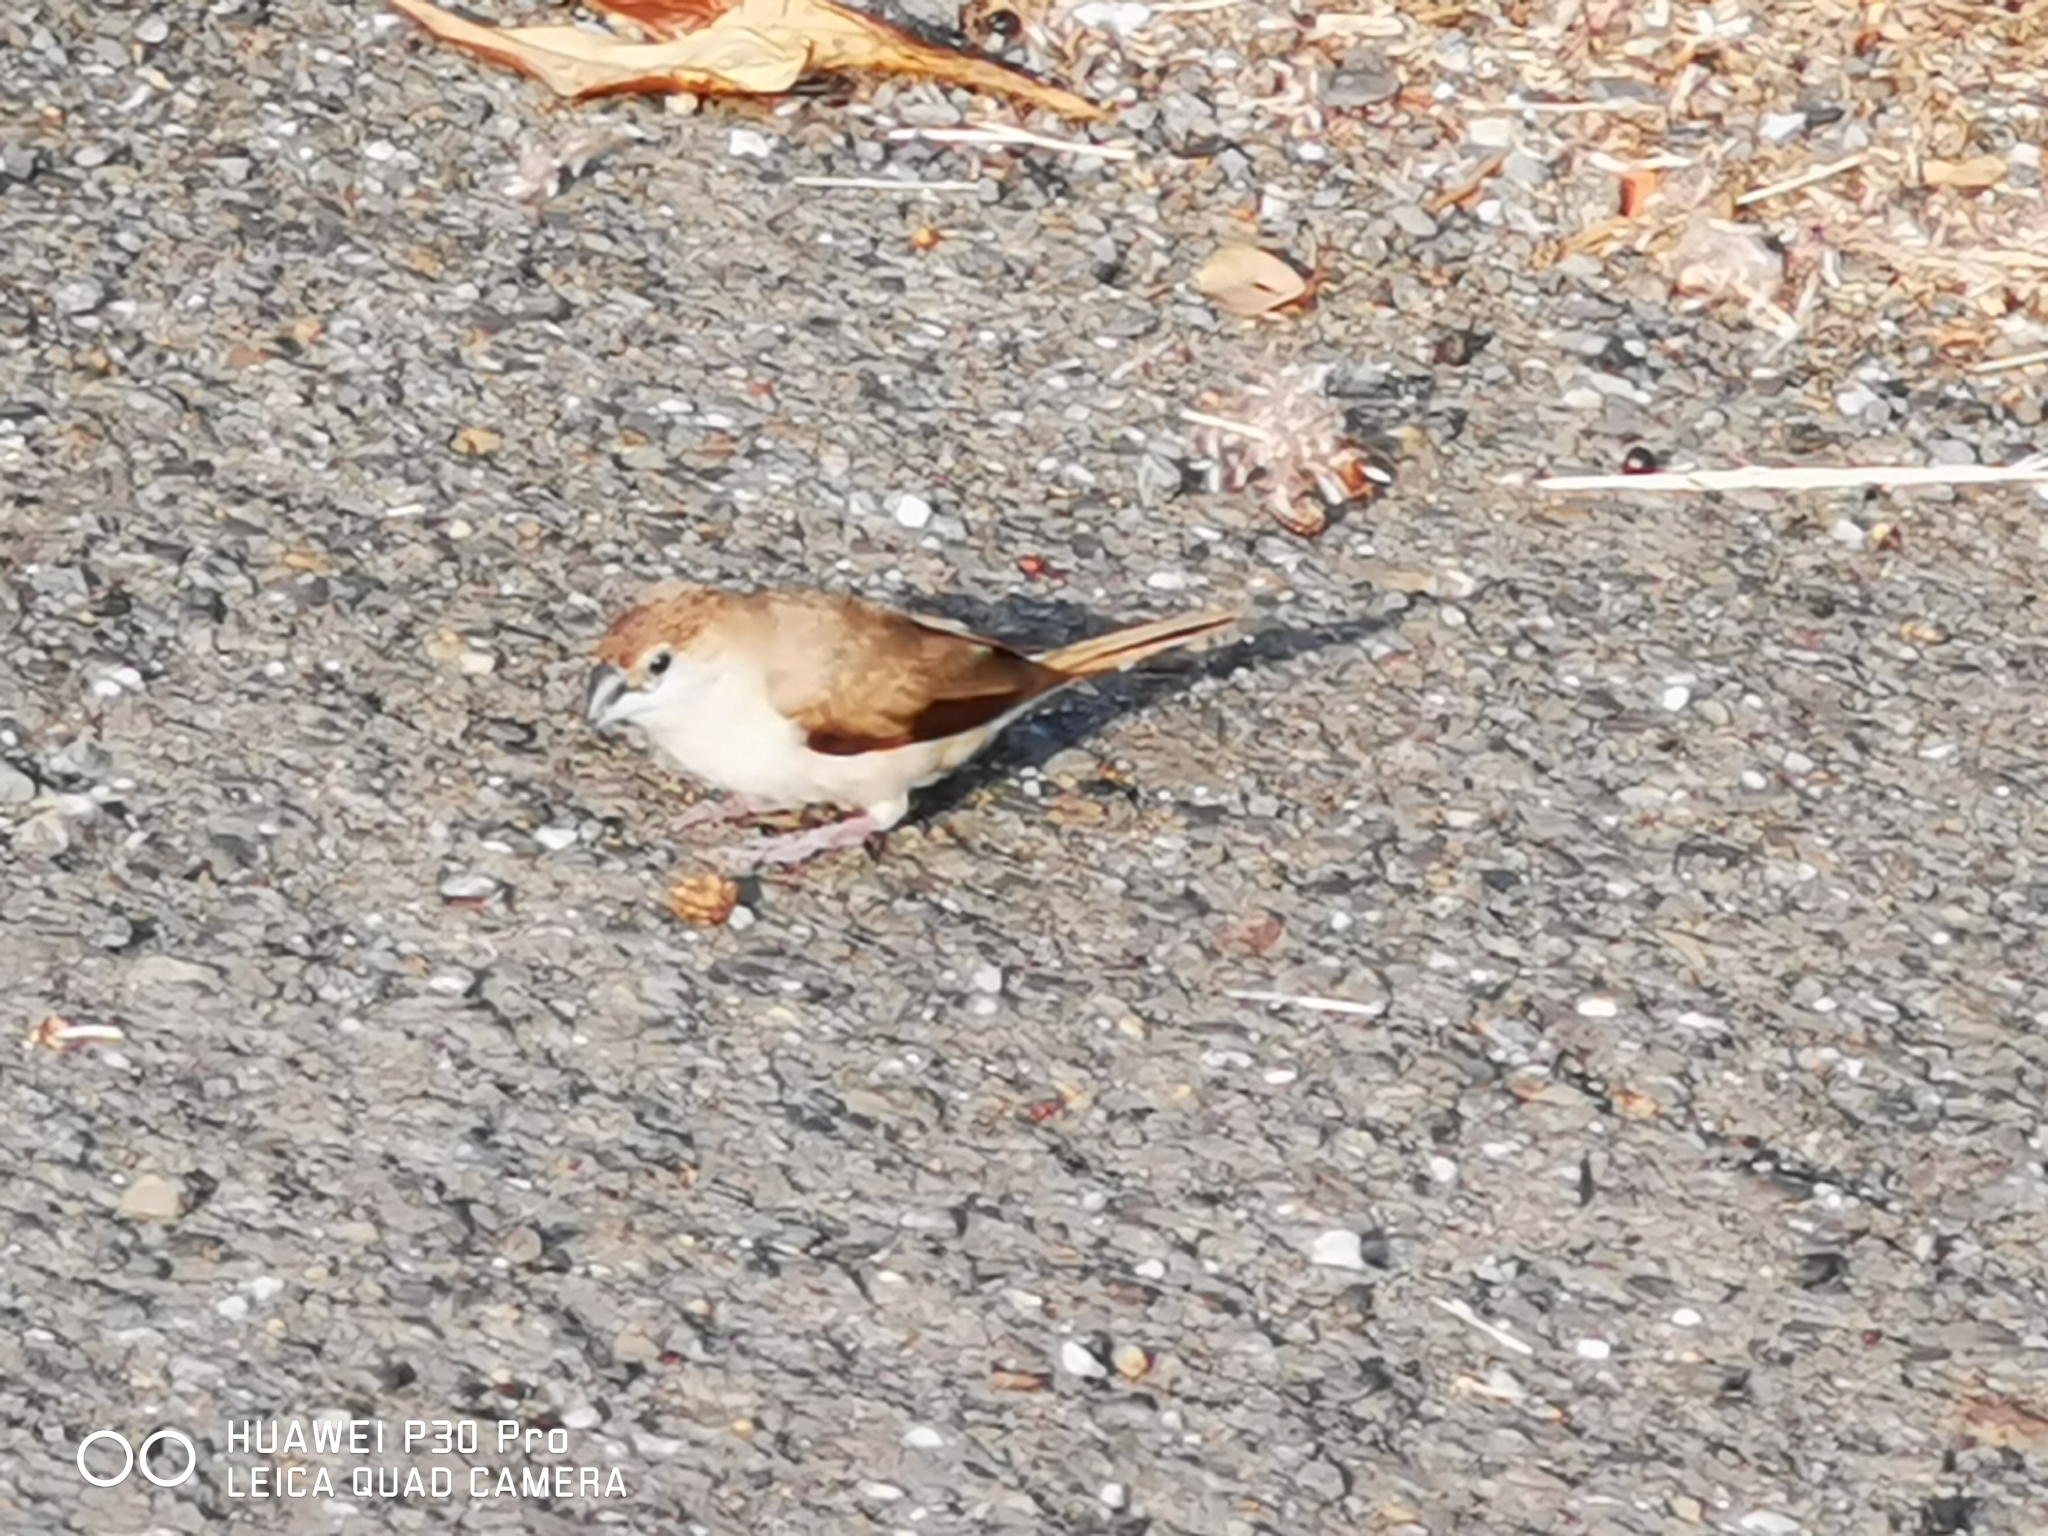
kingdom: Animalia
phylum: Chordata
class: Aves
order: Passeriformes
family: Estrildidae
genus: Euodice
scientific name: Euodice malabarica
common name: Indian silverbill
